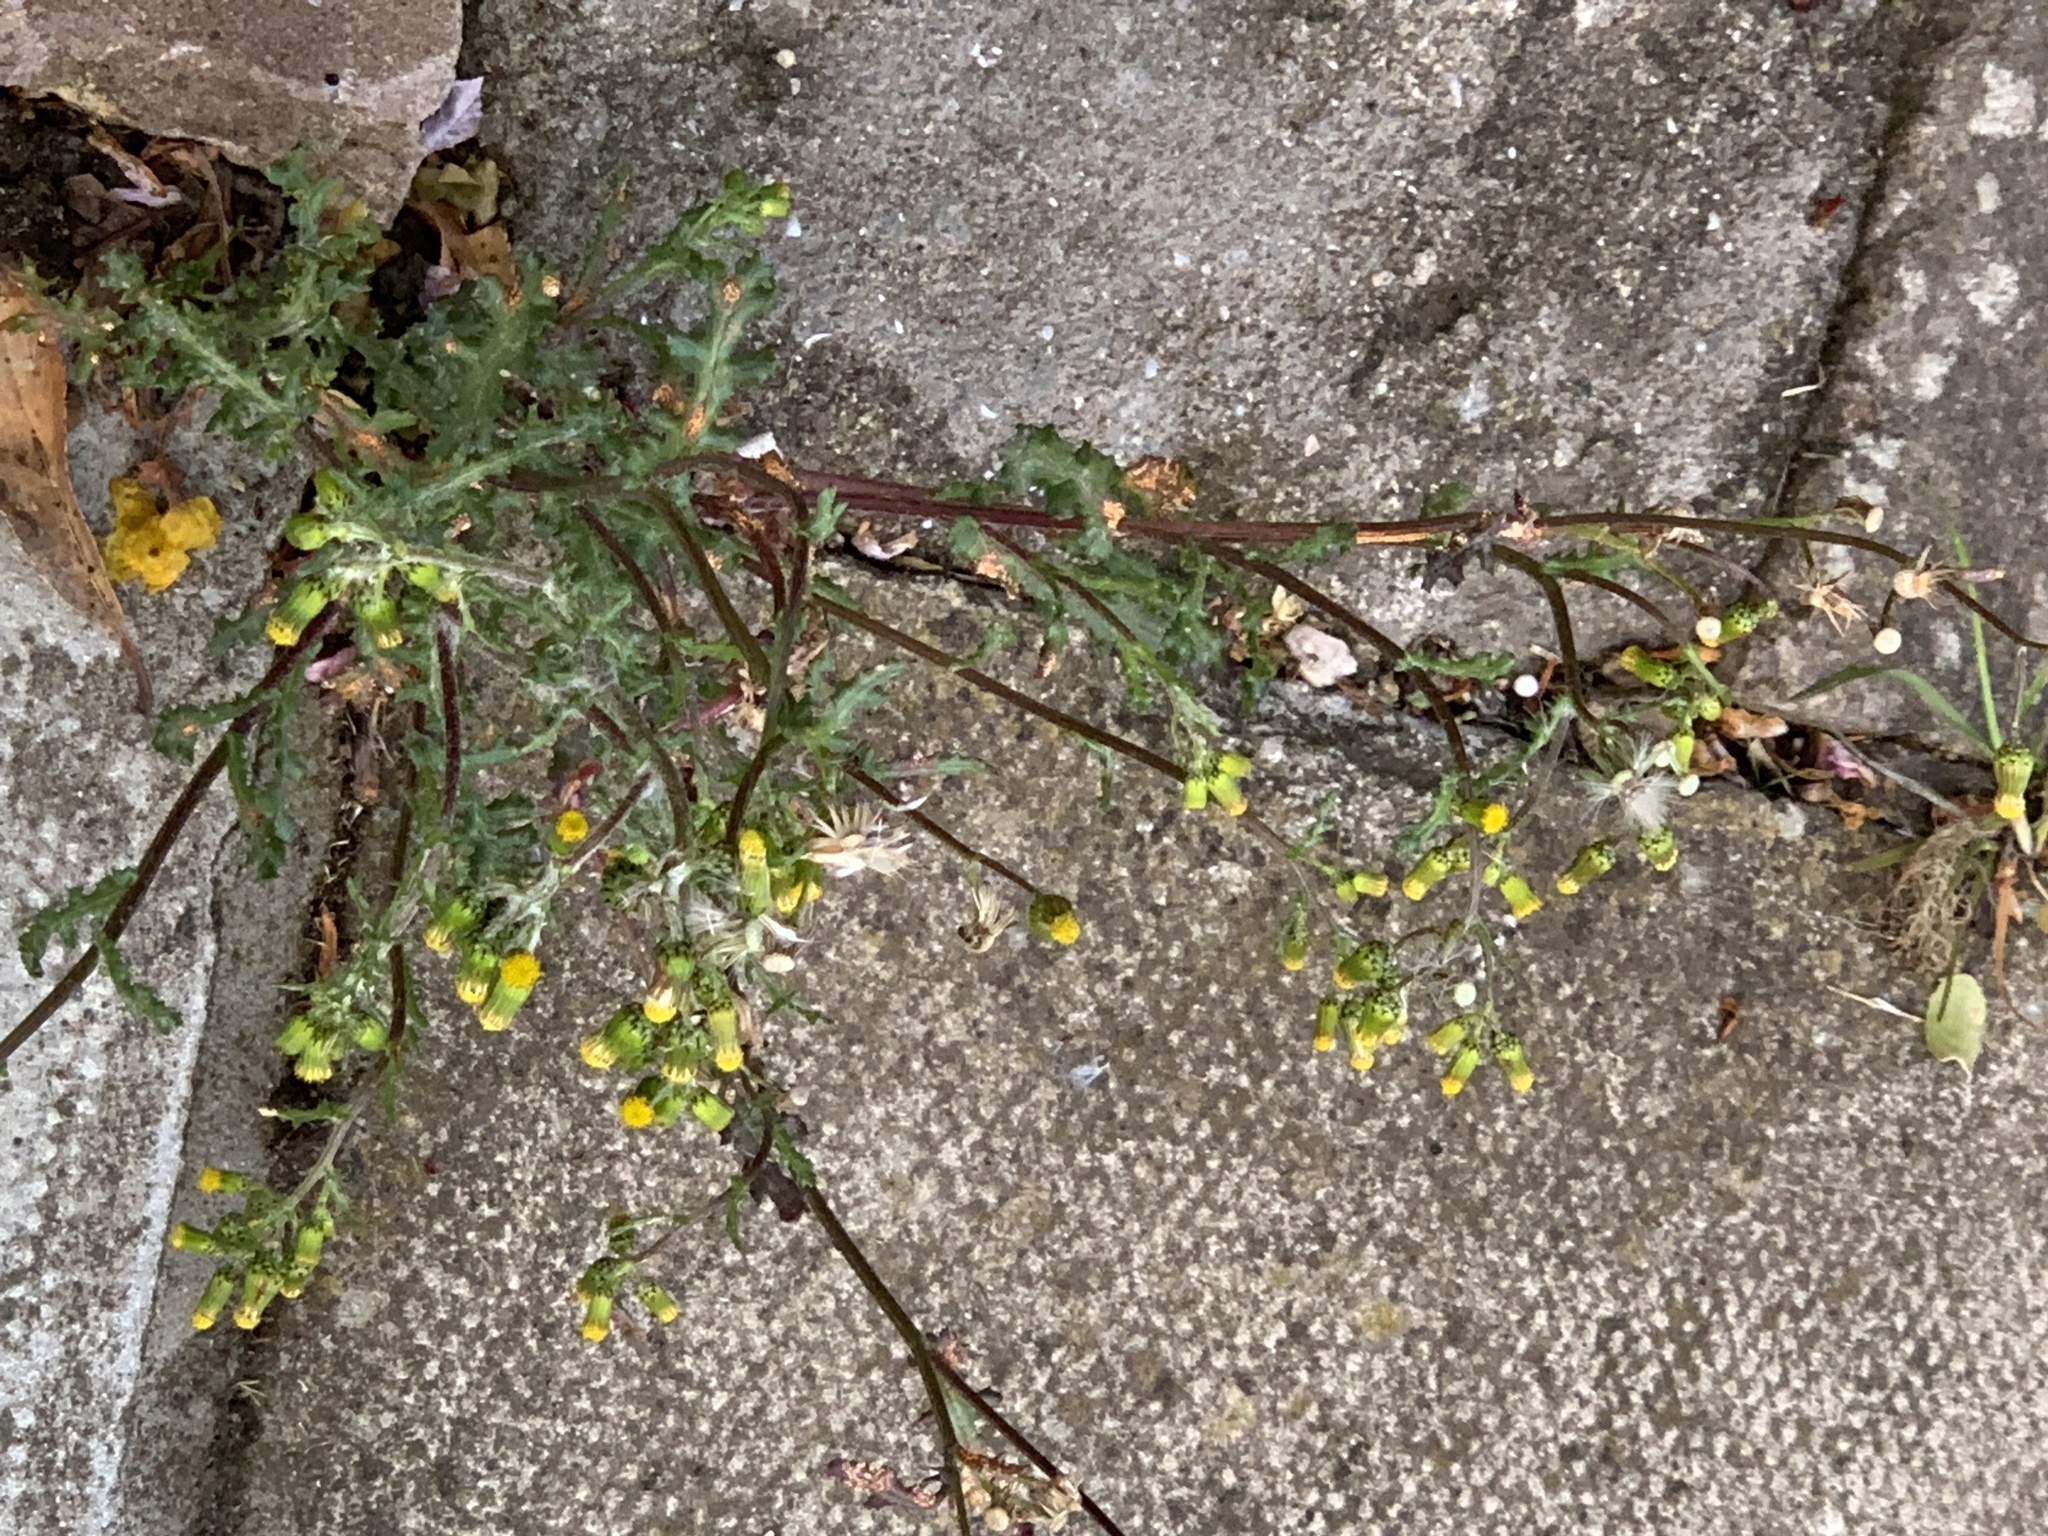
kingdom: Plantae
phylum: Tracheophyta
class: Magnoliopsida
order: Asterales
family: Asteraceae
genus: Senecio
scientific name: Senecio vulgaris
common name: Old-man-in-the-spring
